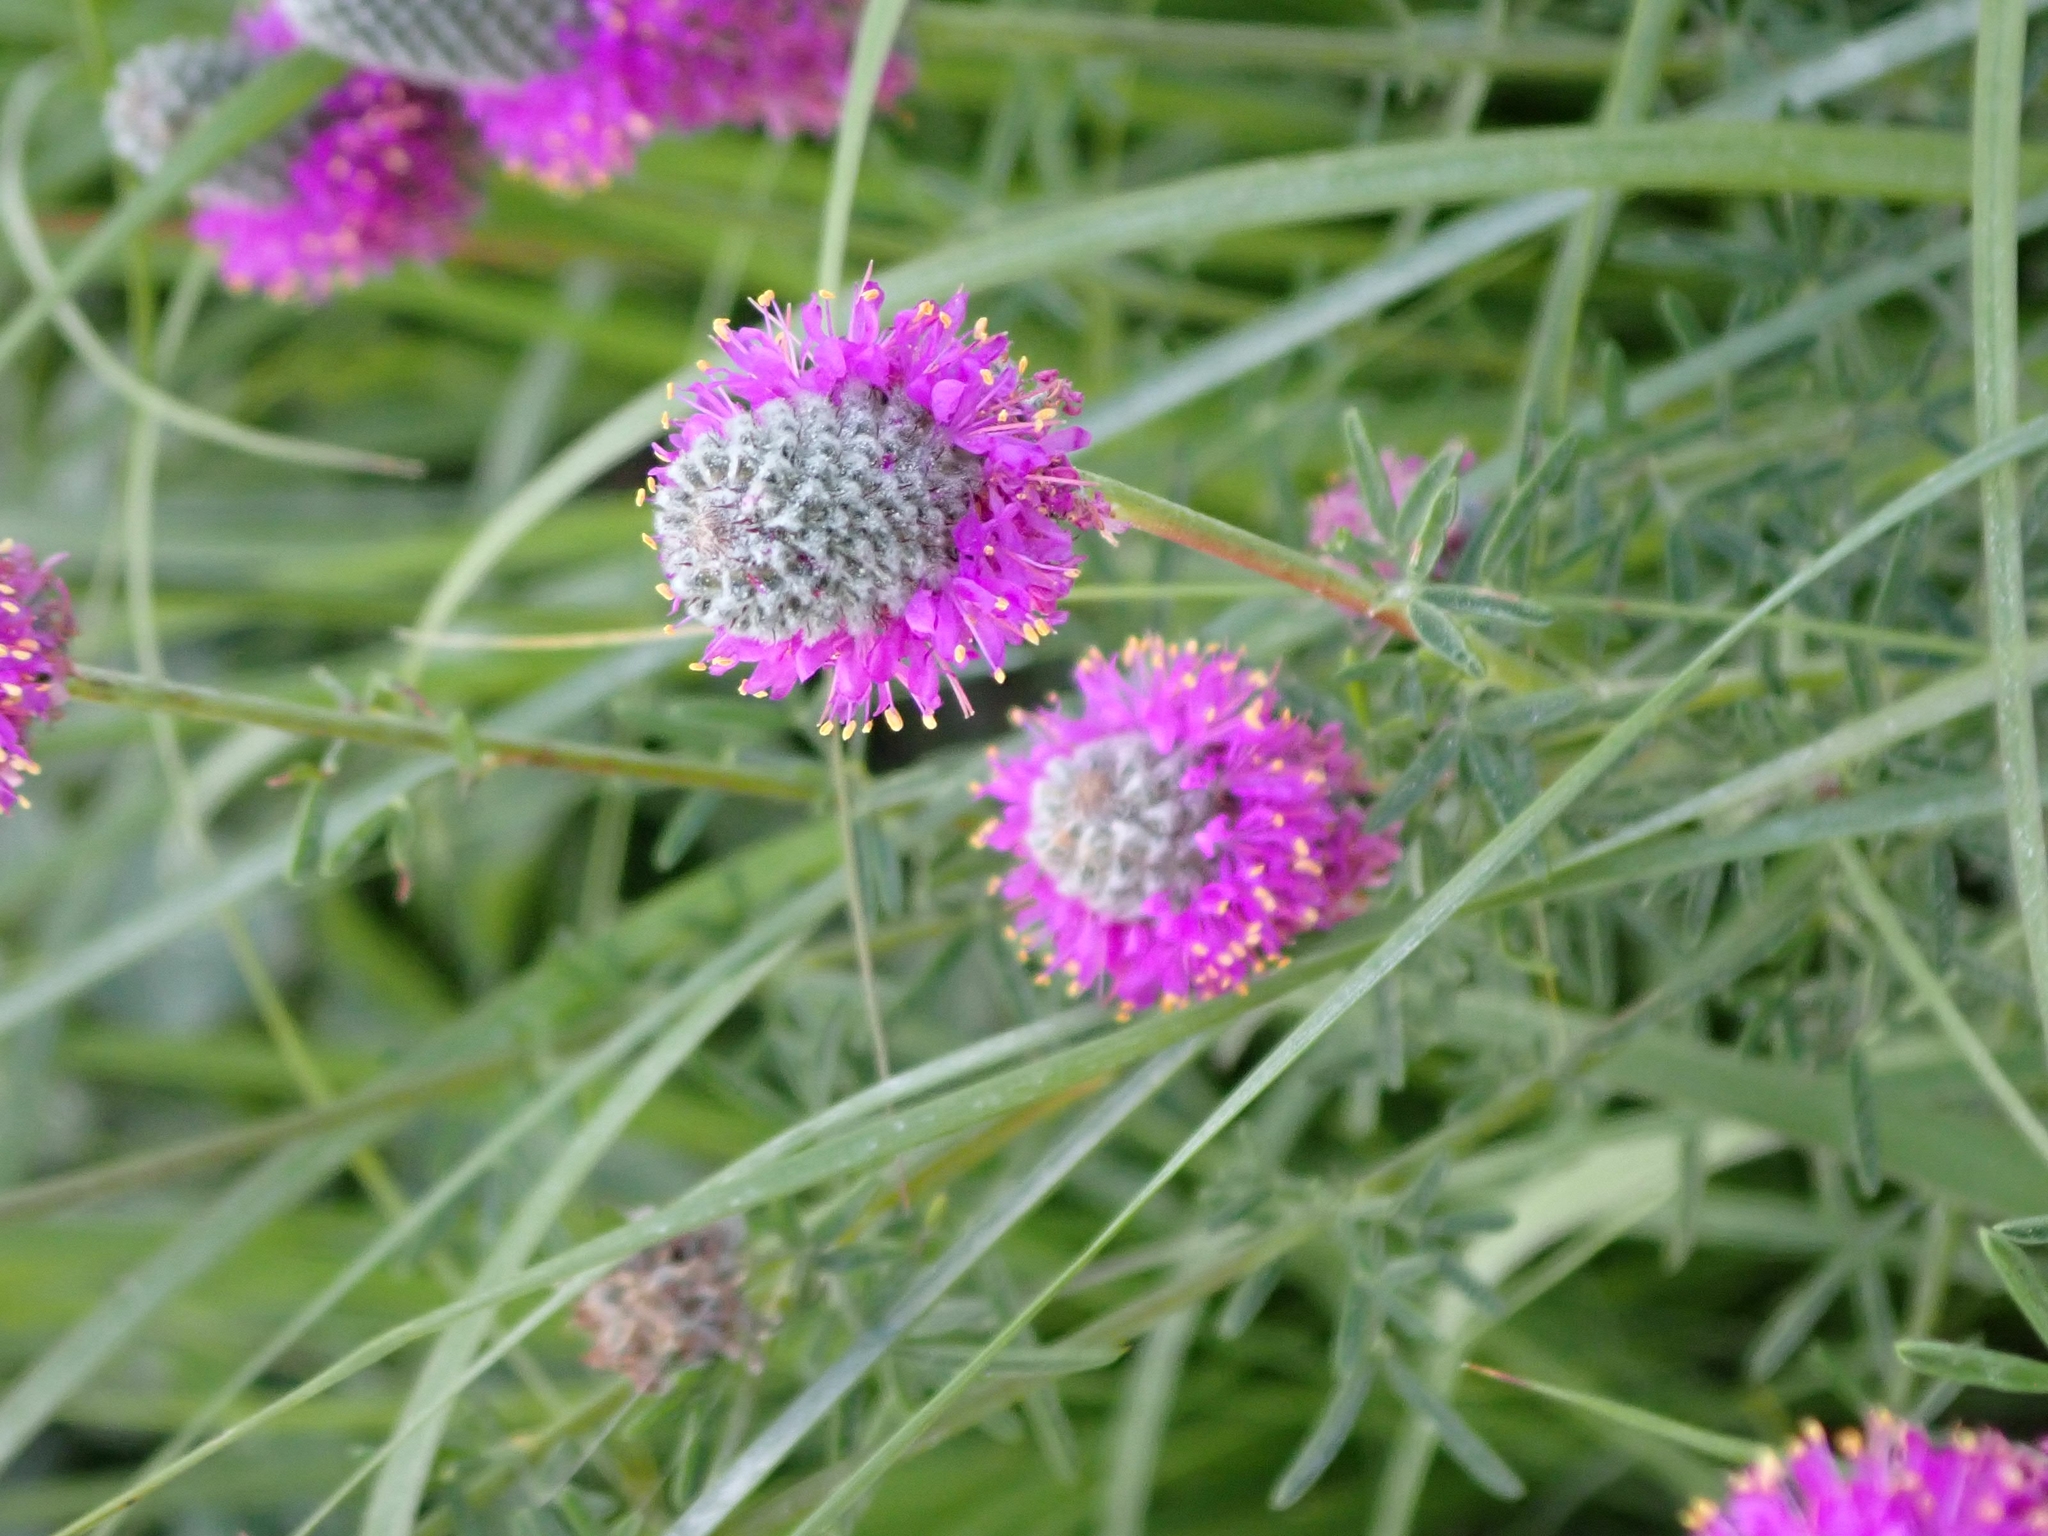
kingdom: Plantae
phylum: Tracheophyta
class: Magnoliopsida
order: Fabales
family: Fabaceae
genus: Dalea
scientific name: Dalea purpurea
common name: Purple prairie-clover
